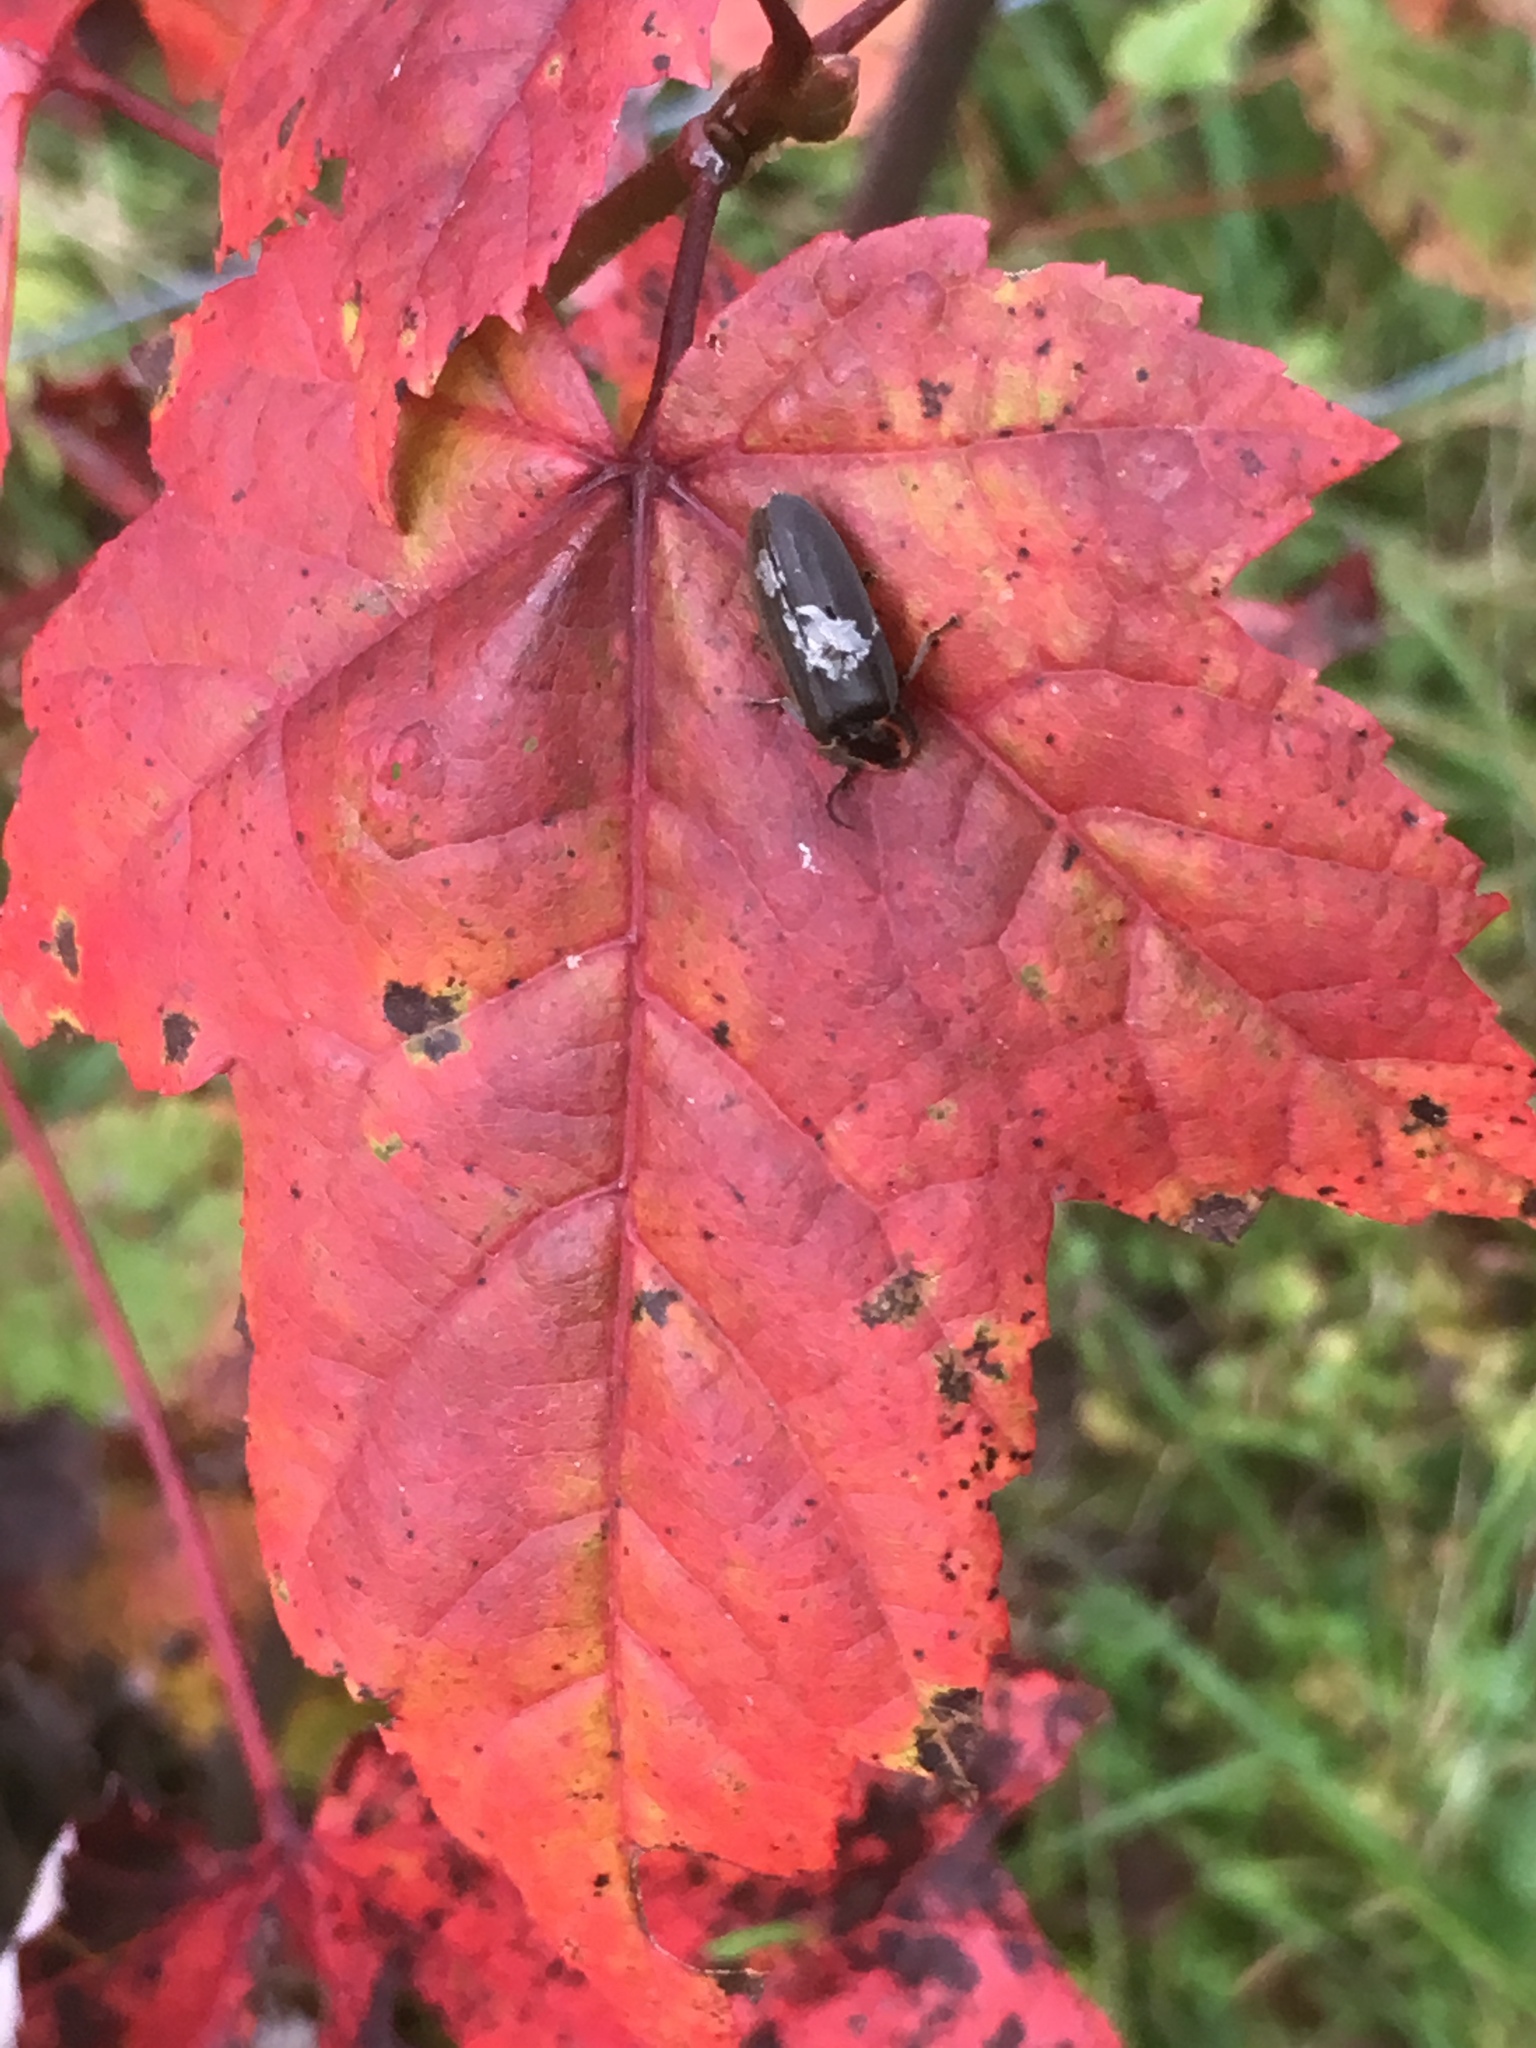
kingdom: Animalia
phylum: Arthropoda
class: Insecta
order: Coleoptera
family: Lampyridae
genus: Photinus
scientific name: Photinus corrusca
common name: Winter firefly
